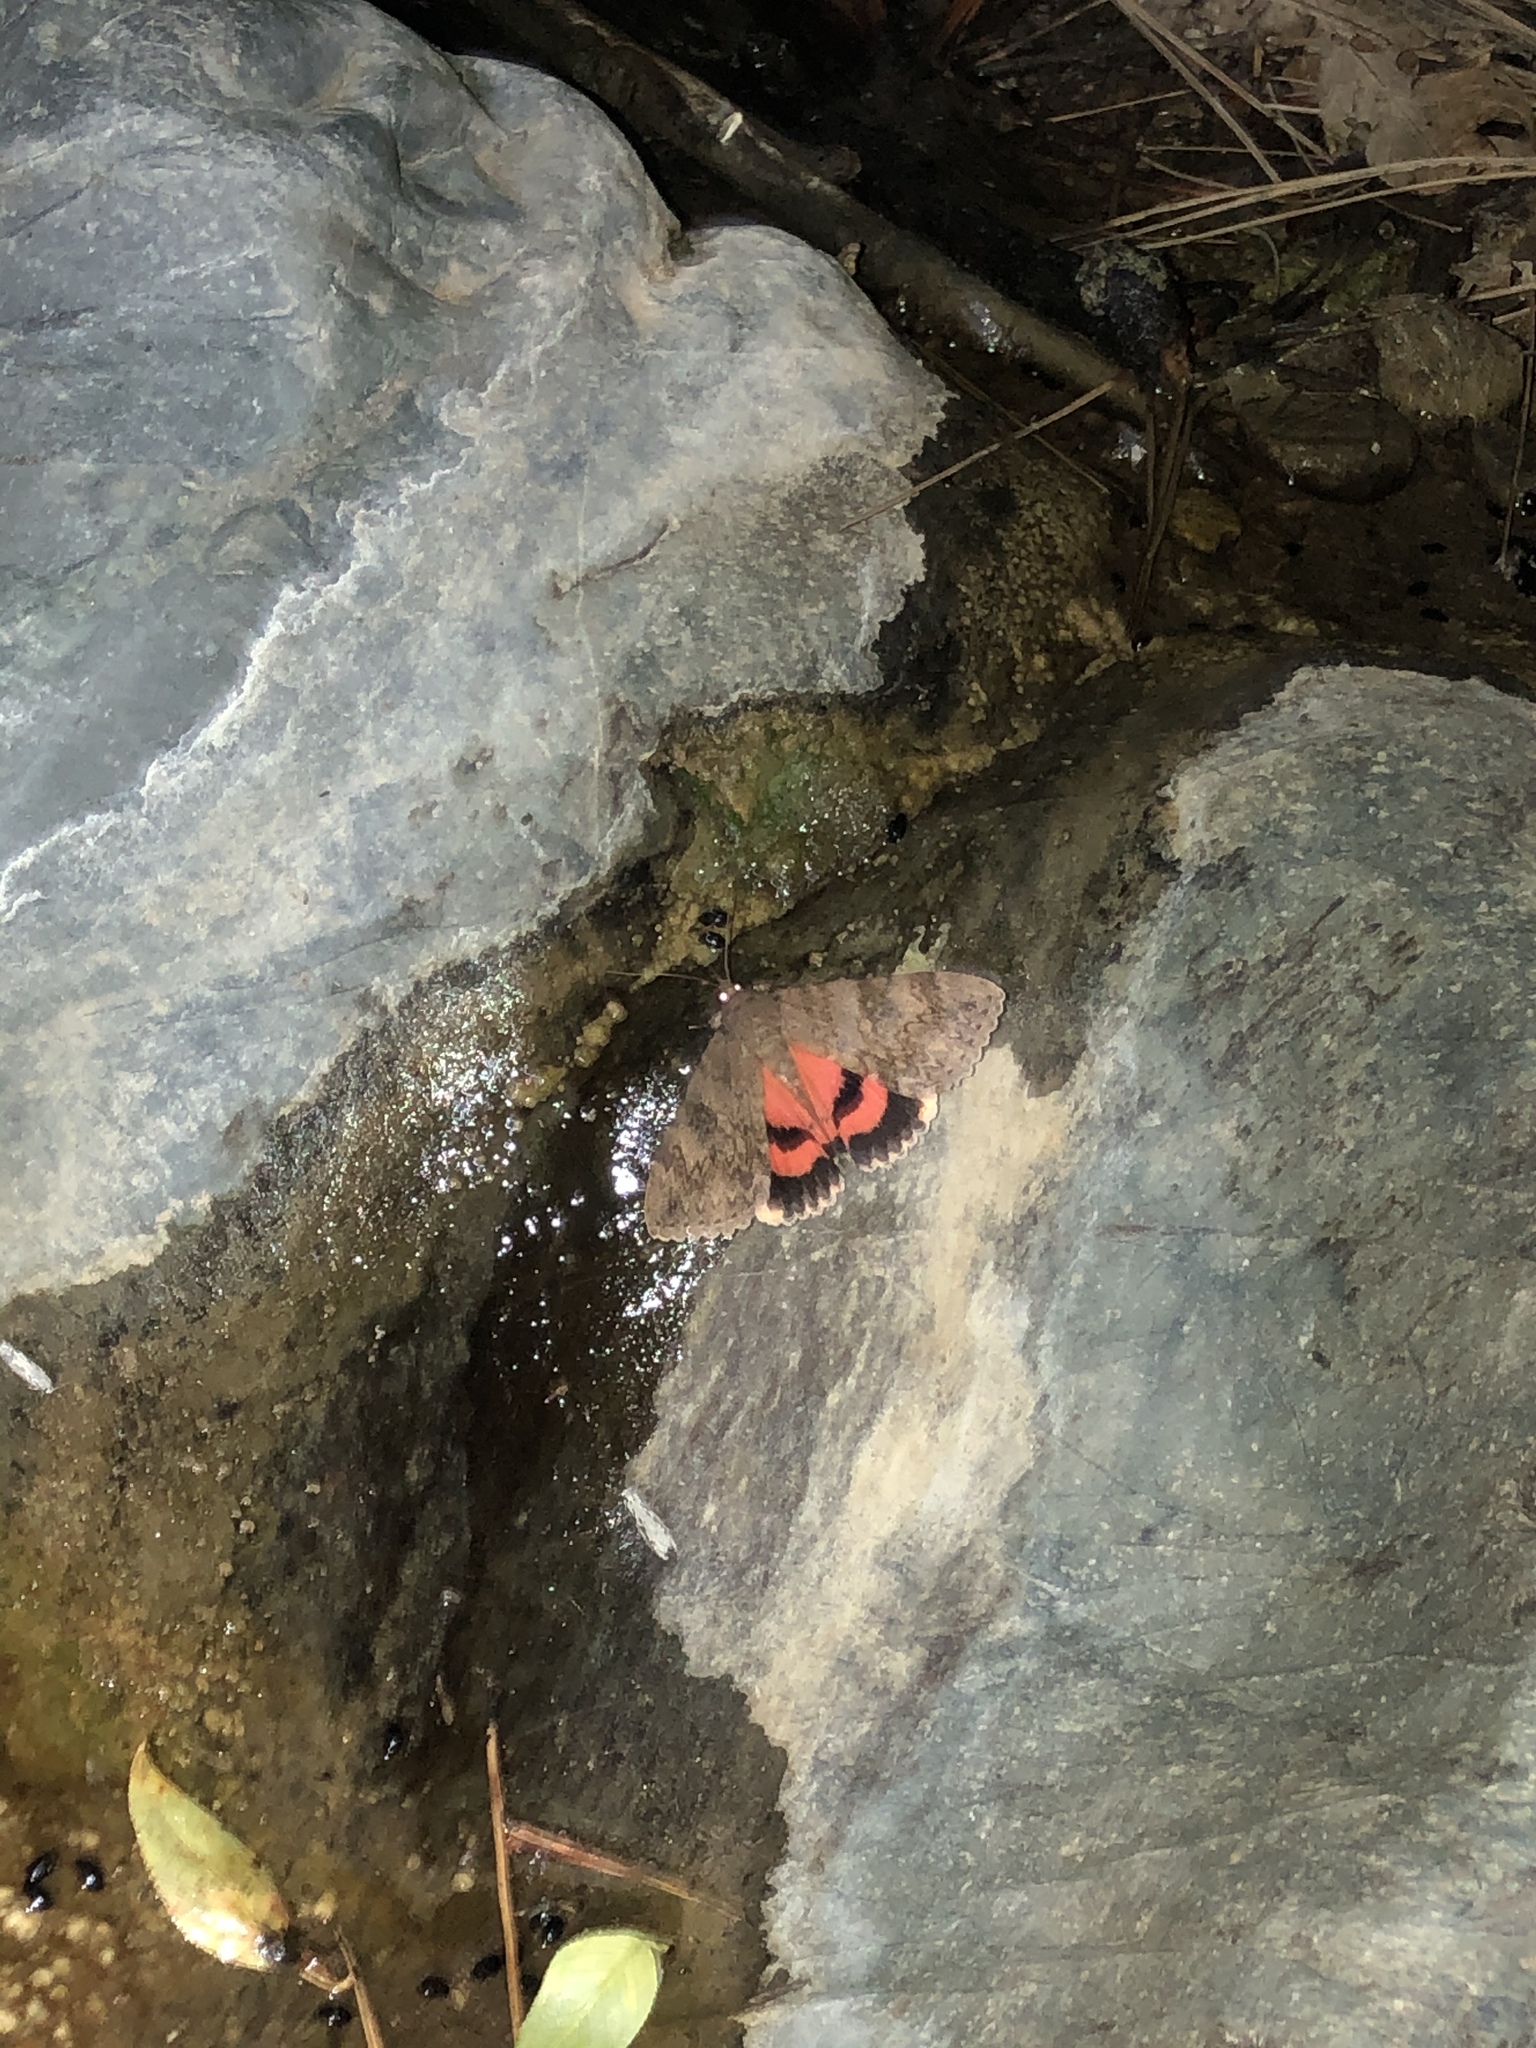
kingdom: Animalia
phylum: Arthropoda
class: Insecta
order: Lepidoptera
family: Erebidae
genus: Catocala
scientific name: Catocala jessica
